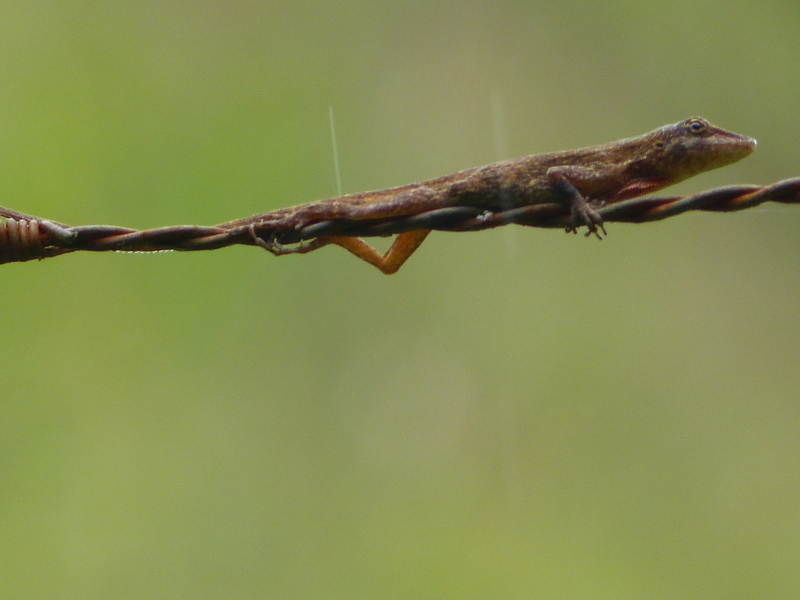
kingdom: Animalia
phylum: Chordata
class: Squamata
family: Dactyloidae
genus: Anolis
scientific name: Anolis kemptoni
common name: Kempton's anole
